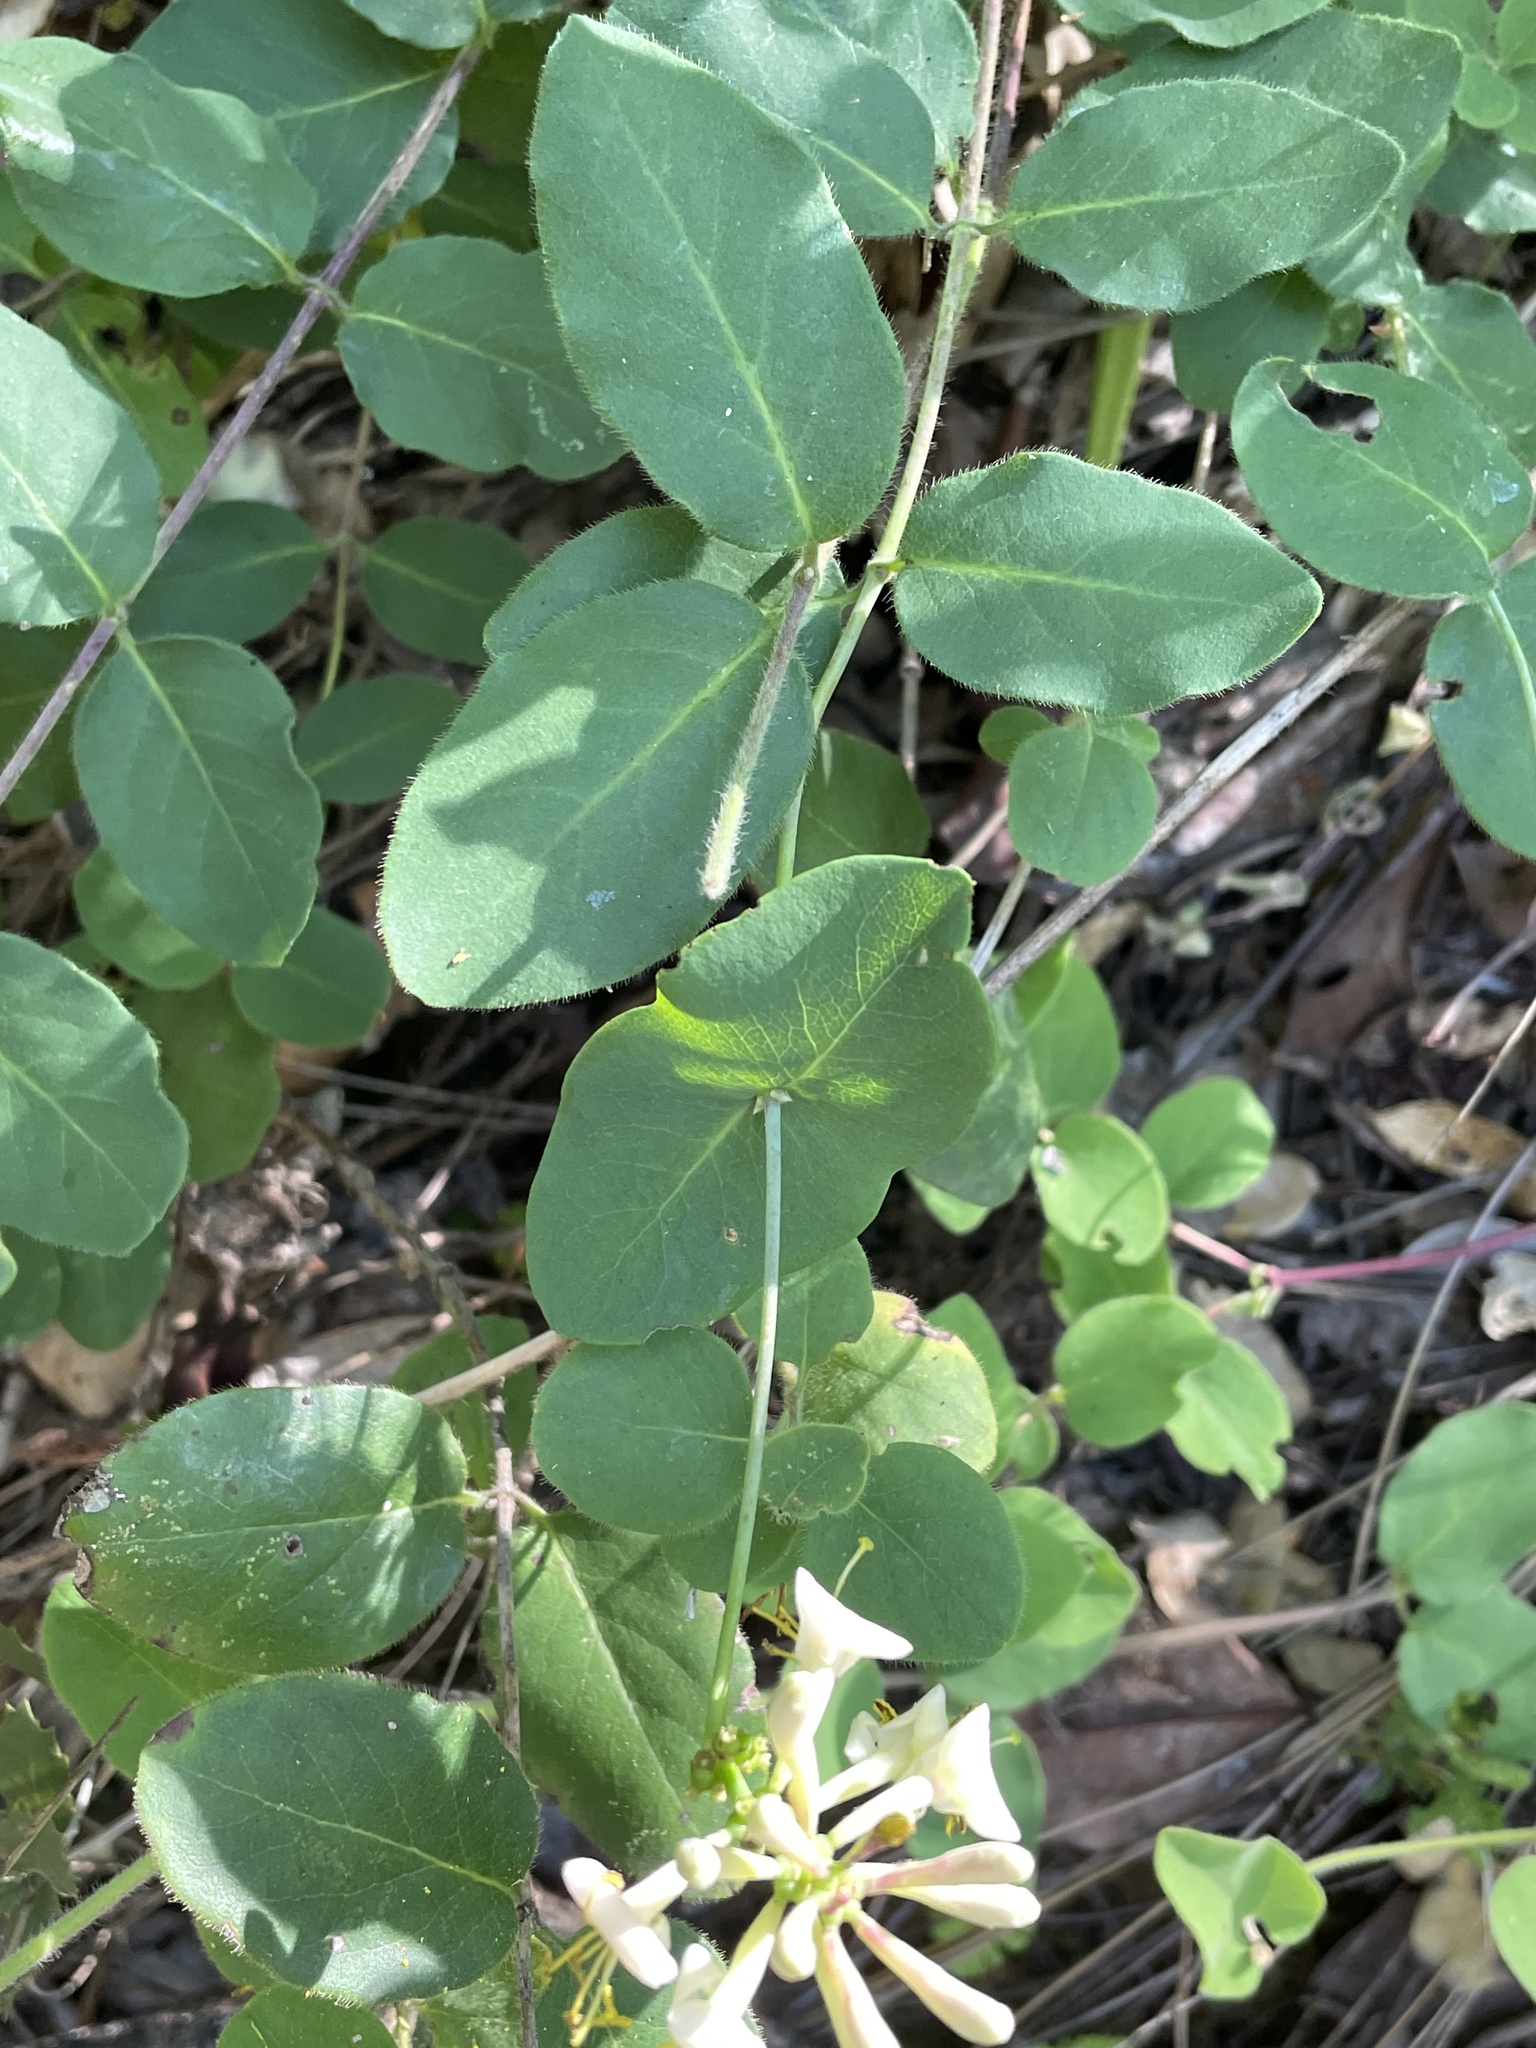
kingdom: Plantae
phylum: Tracheophyta
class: Magnoliopsida
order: Dipsacales
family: Caprifoliaceae
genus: Lonicera
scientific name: Lonicera hispidula
